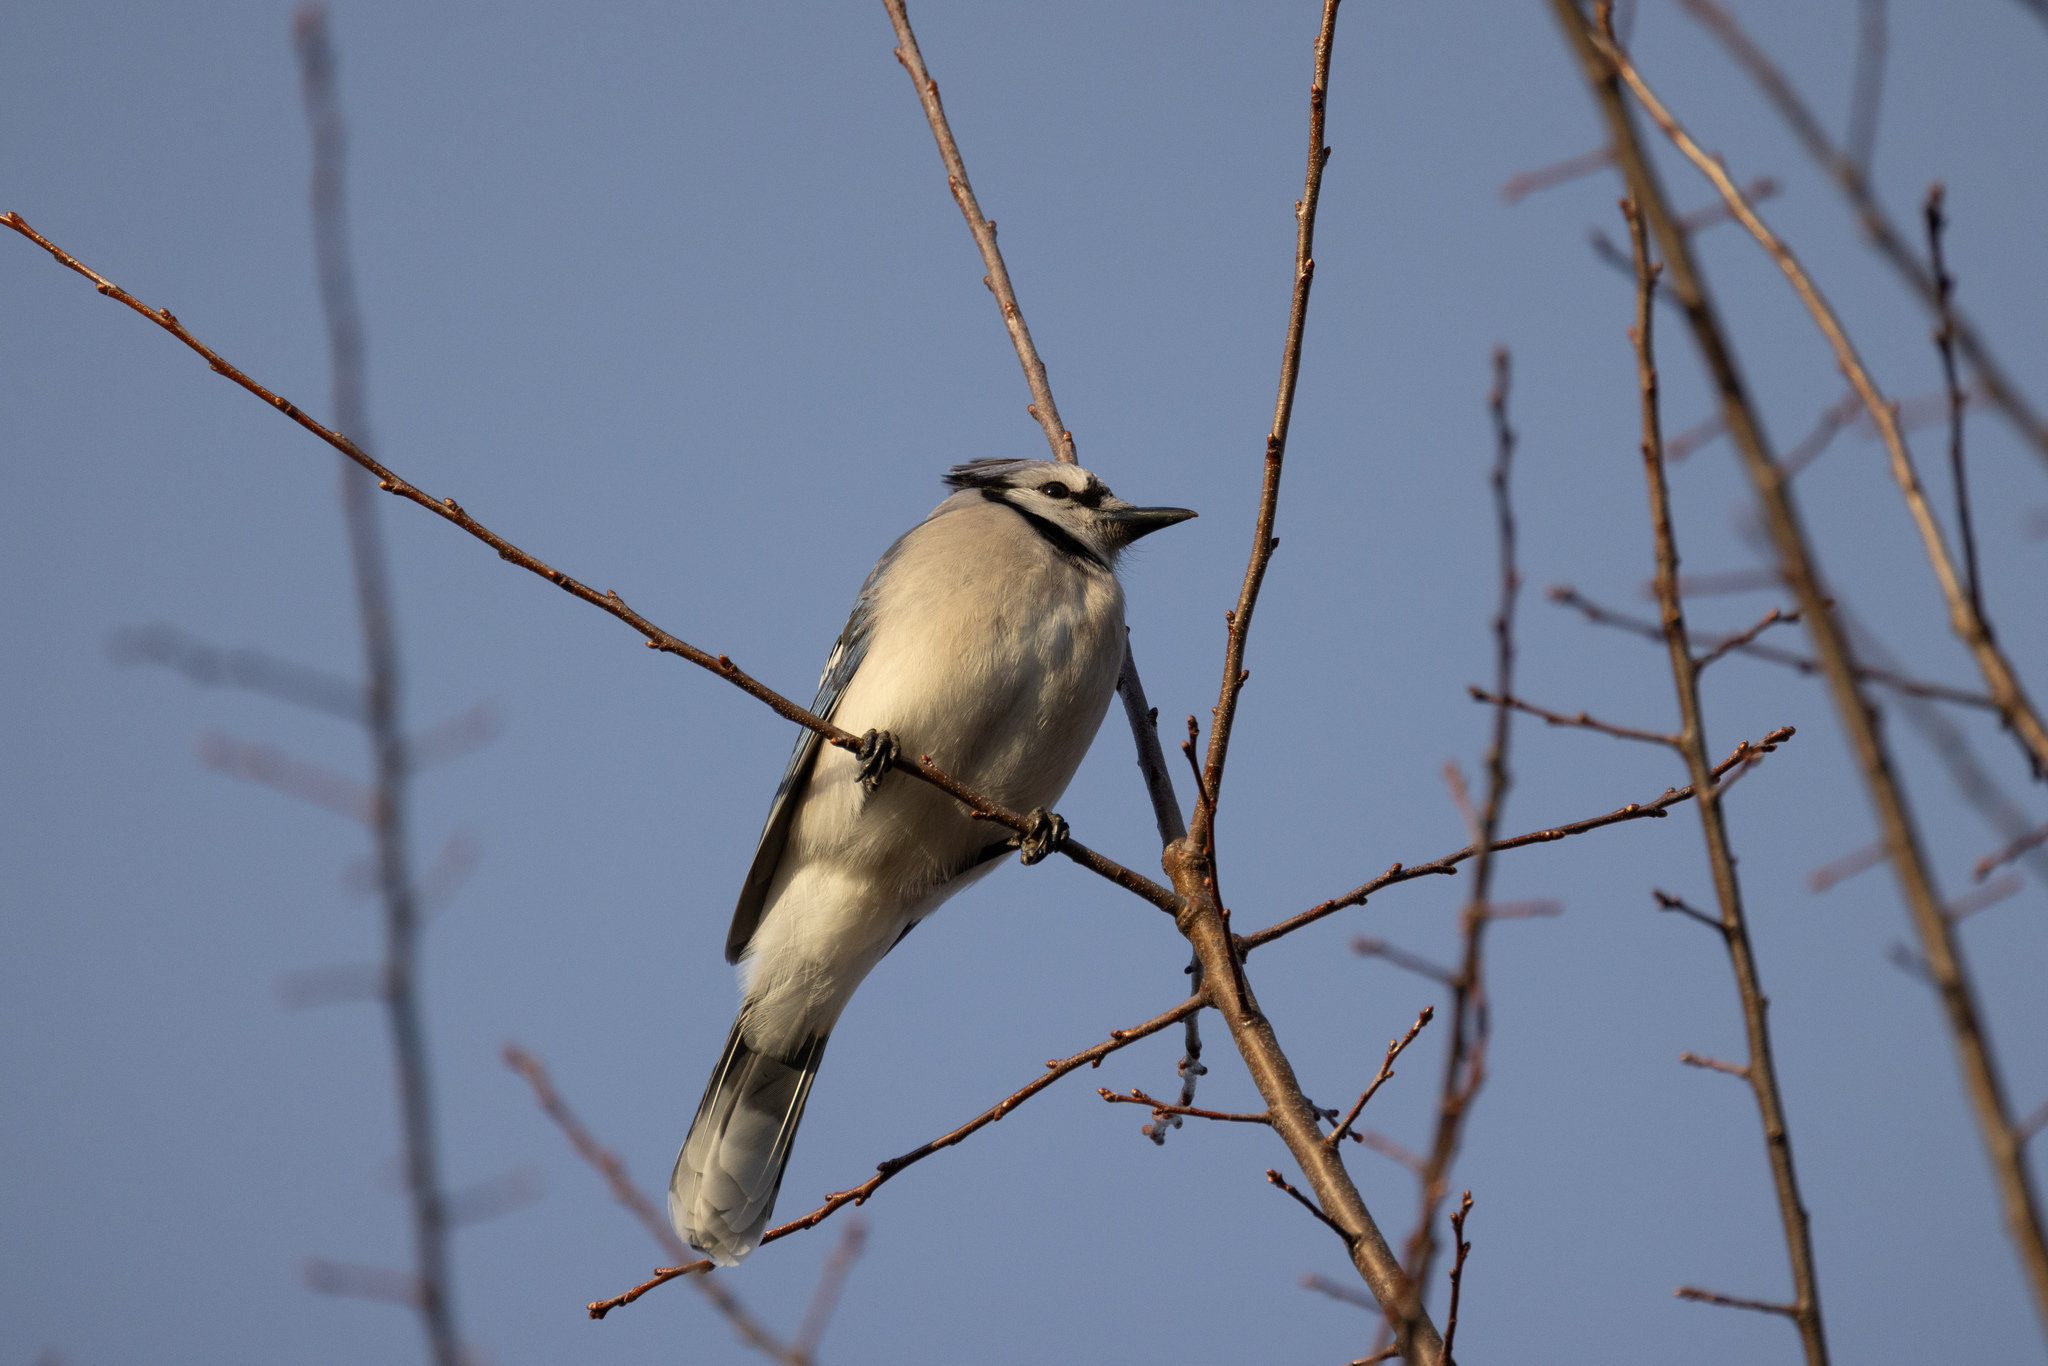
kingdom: Animalia
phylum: Chordata
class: Aves
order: Passeriformes
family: Corvidae
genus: Cyanocitta
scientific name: Cyanocitta cristata
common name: Blue jay
